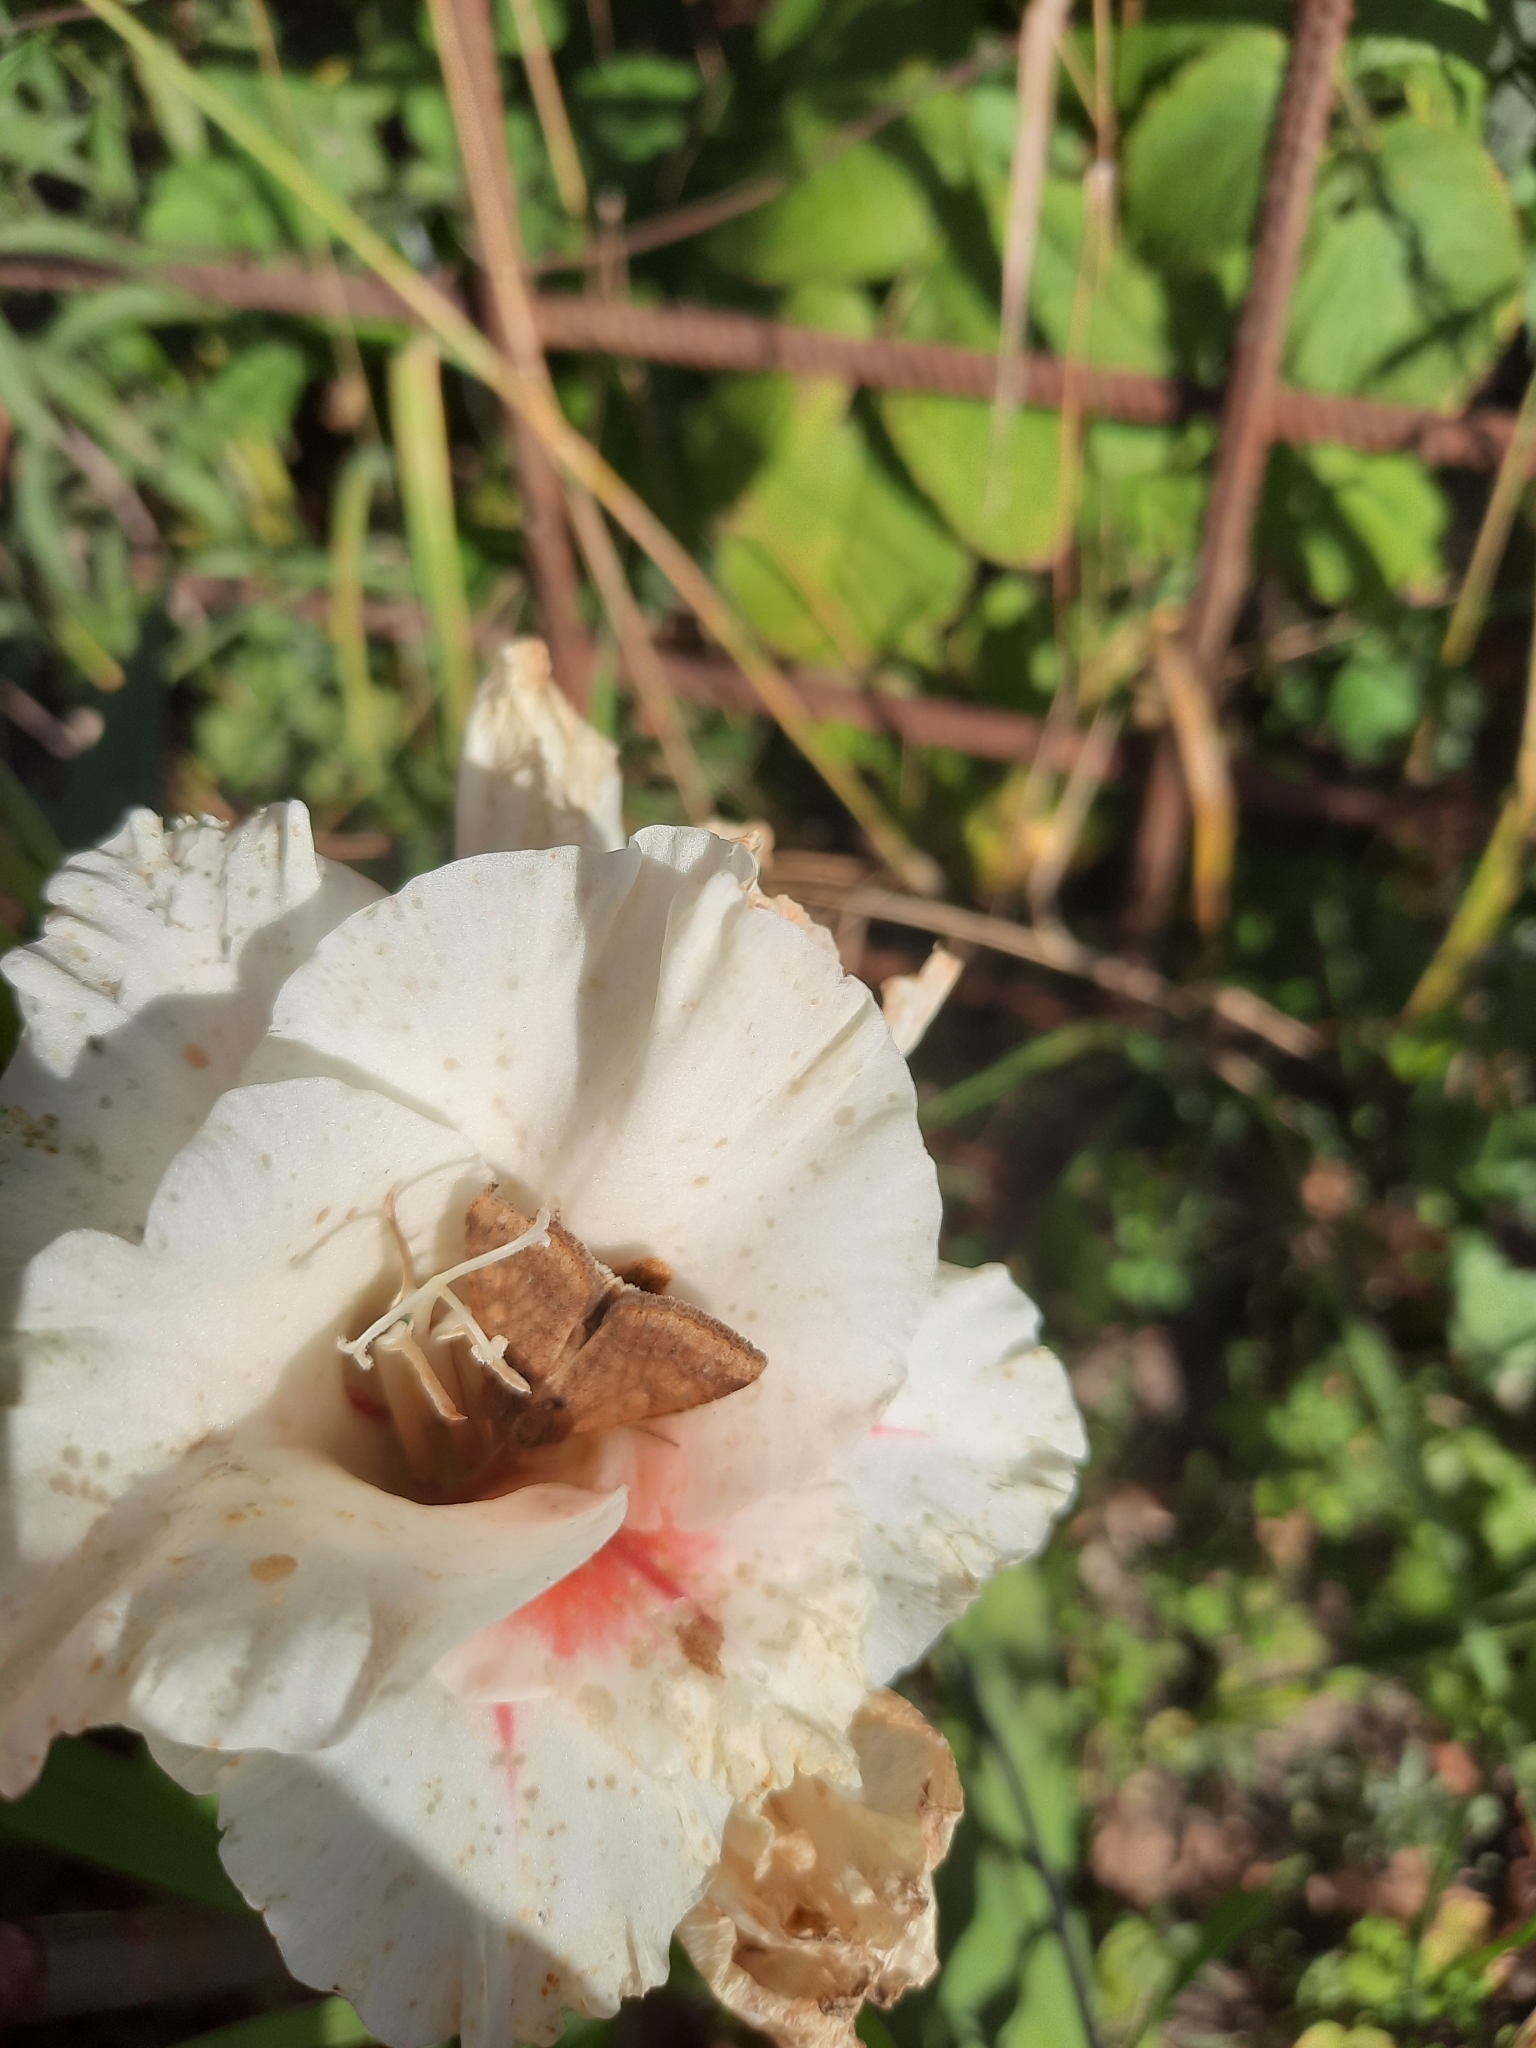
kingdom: Animalia
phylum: Arthropoda
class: Insecta
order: Lepidoptera
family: Noctuidae
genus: Helicoverpa
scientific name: Helicoverpa armigera
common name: Cotton bollworm
